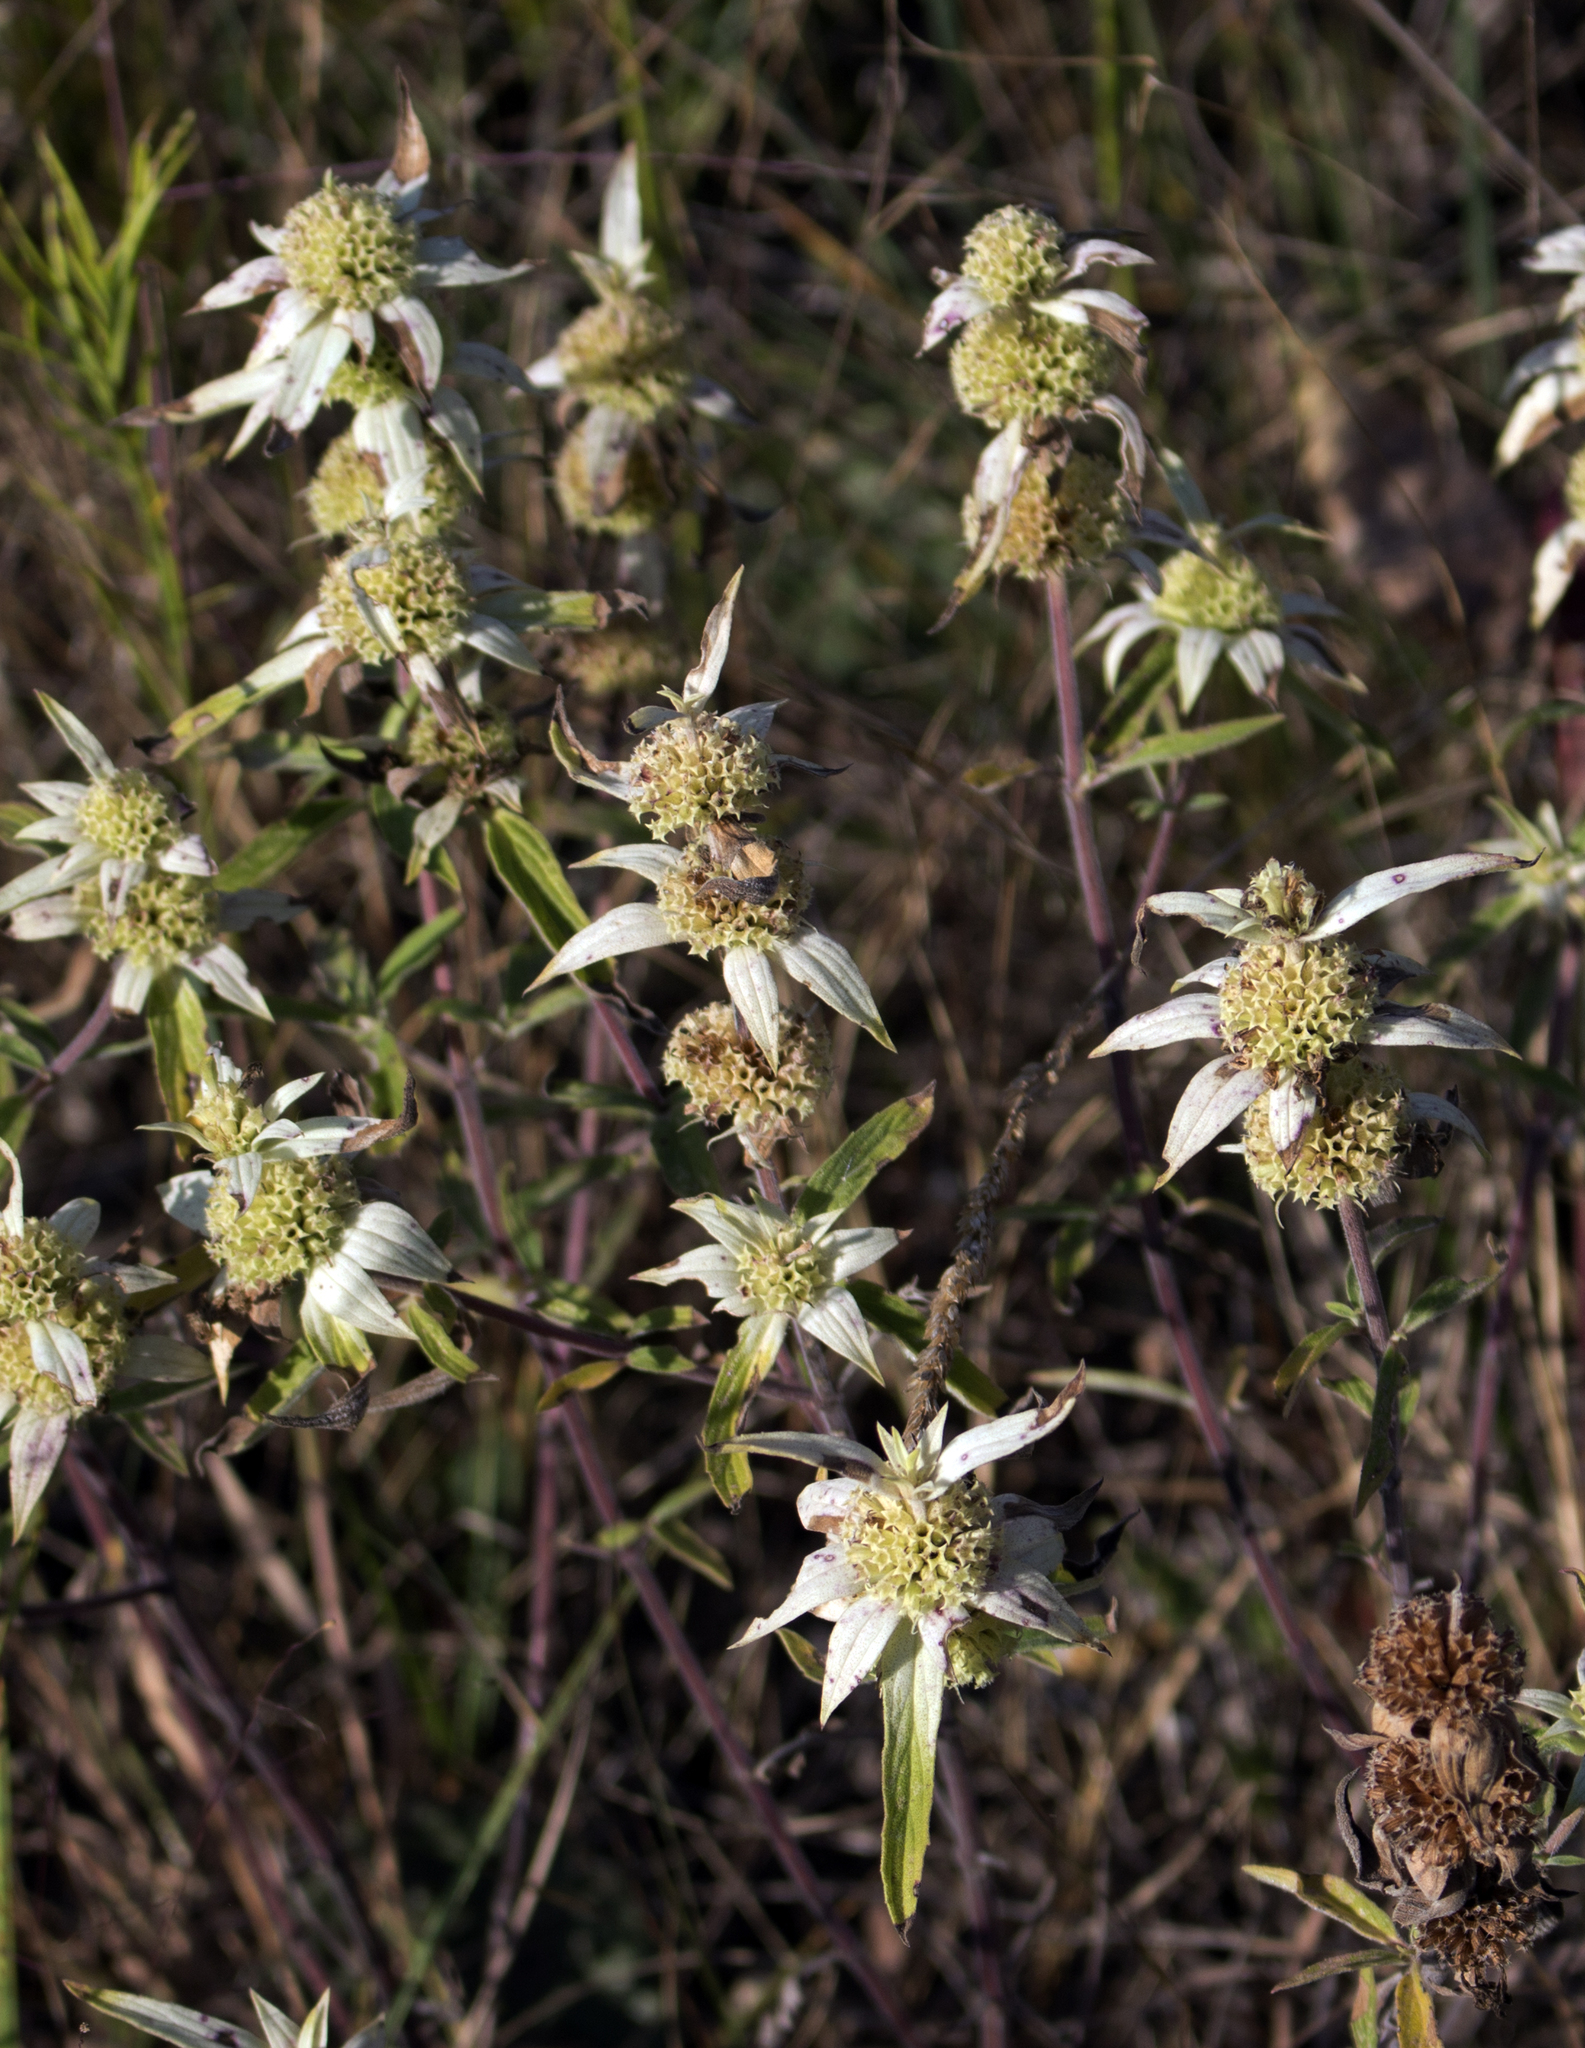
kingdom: Plantae
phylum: Tracheophyta
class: Magnoliopsida
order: Lamiales
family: Lamiaceae
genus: Monarda
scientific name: Monarda punctata
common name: Dotted monarda
